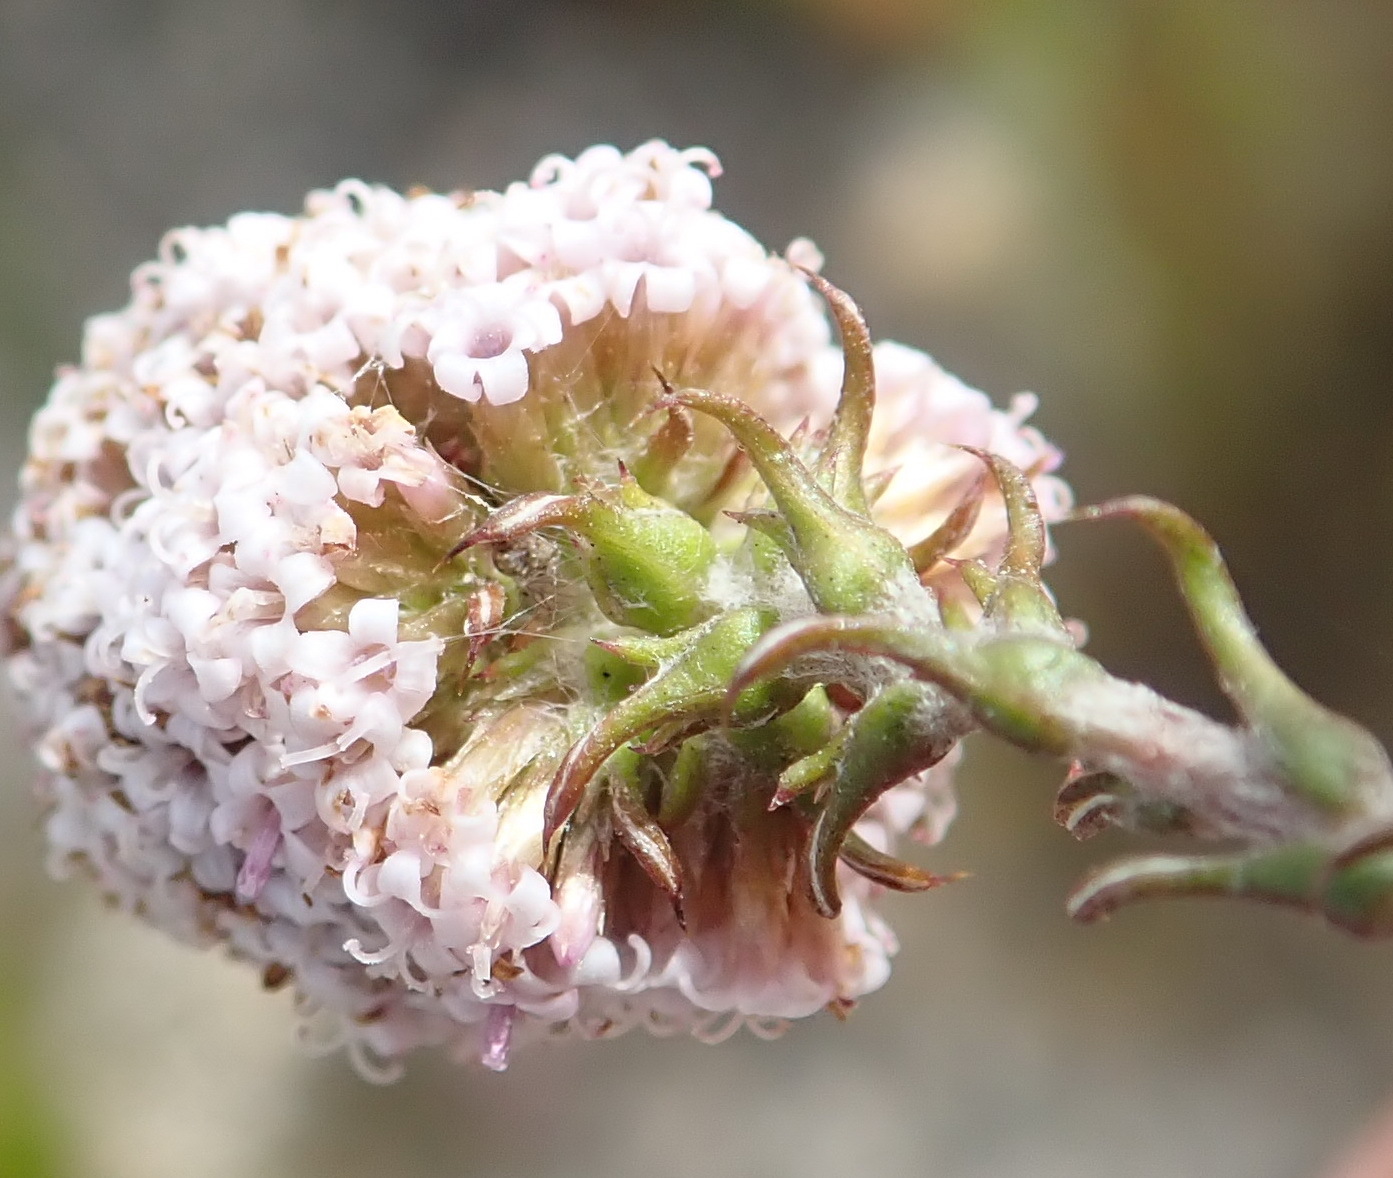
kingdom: Plantae
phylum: Tracheophyta
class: Magnoliopsida
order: Asterales
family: Asteraceae
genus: Stoebe
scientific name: Stoebe capitata
